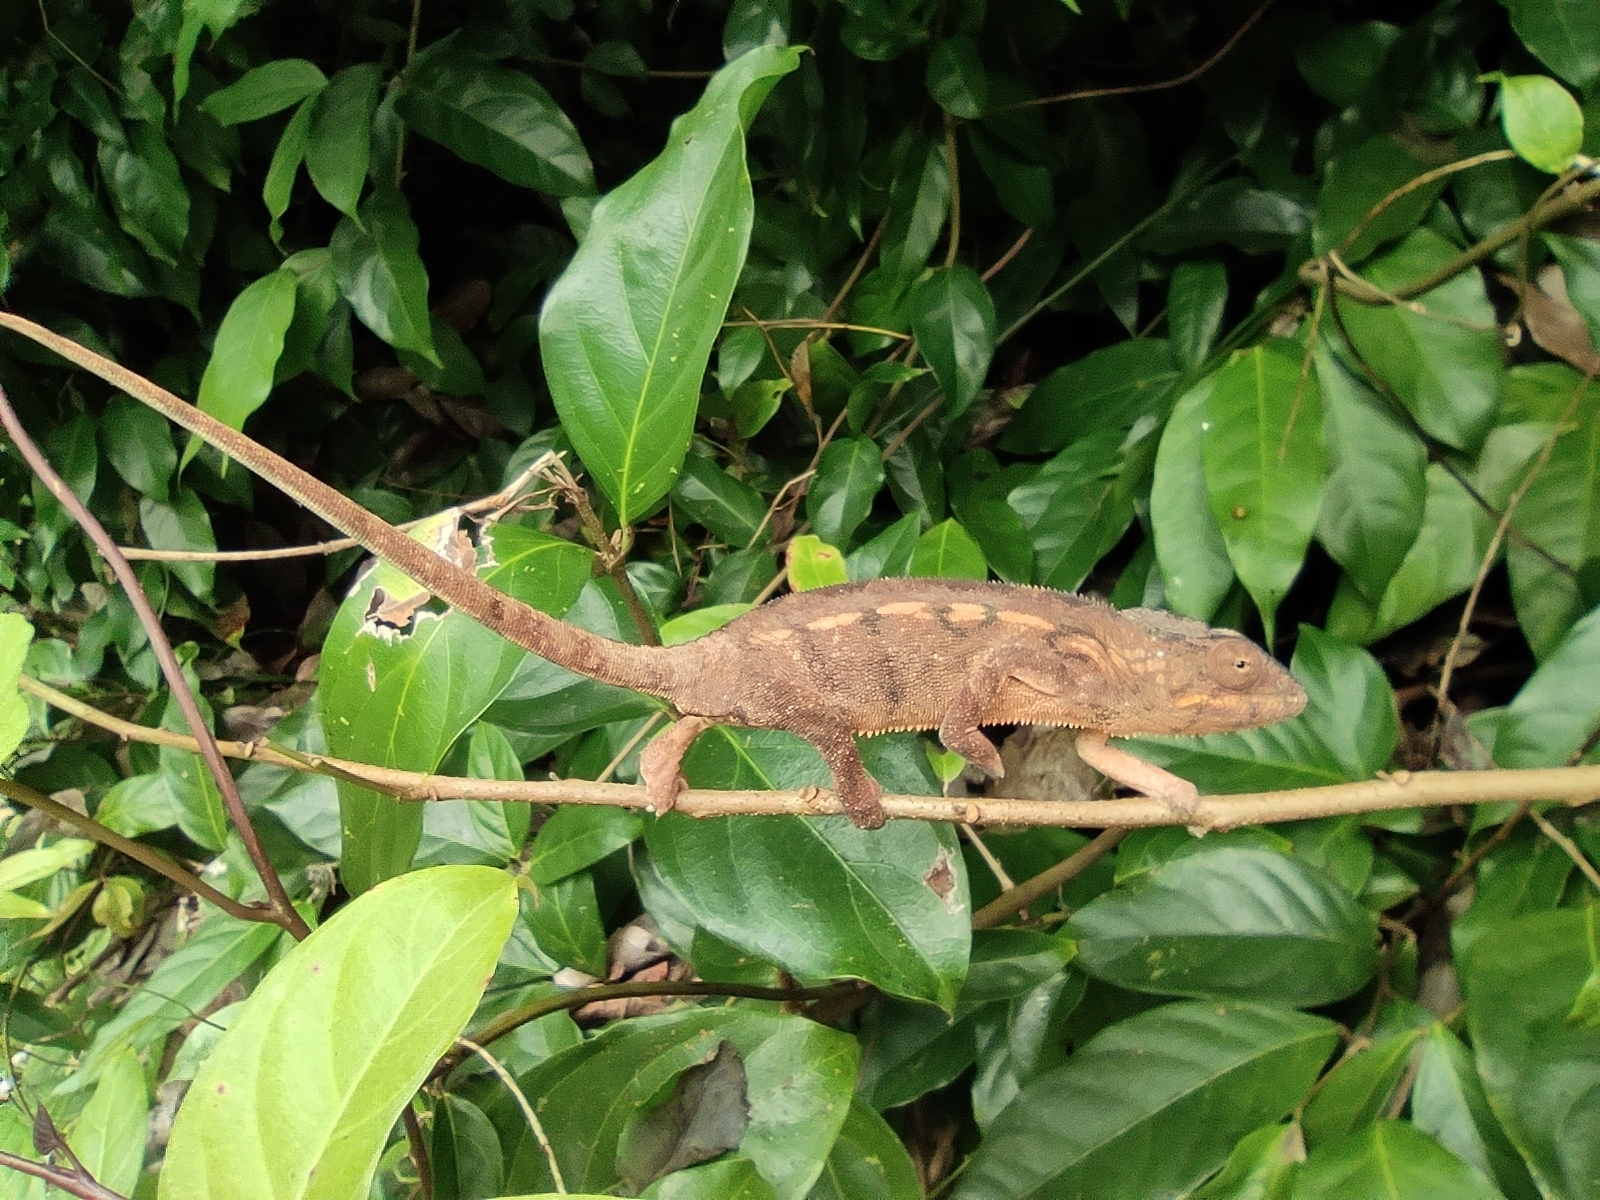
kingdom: Animalia
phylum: Chordata
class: Squamata
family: Chamaeleonidae
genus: Furcifer
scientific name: Furcifer pardalis
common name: Panther chameleon
